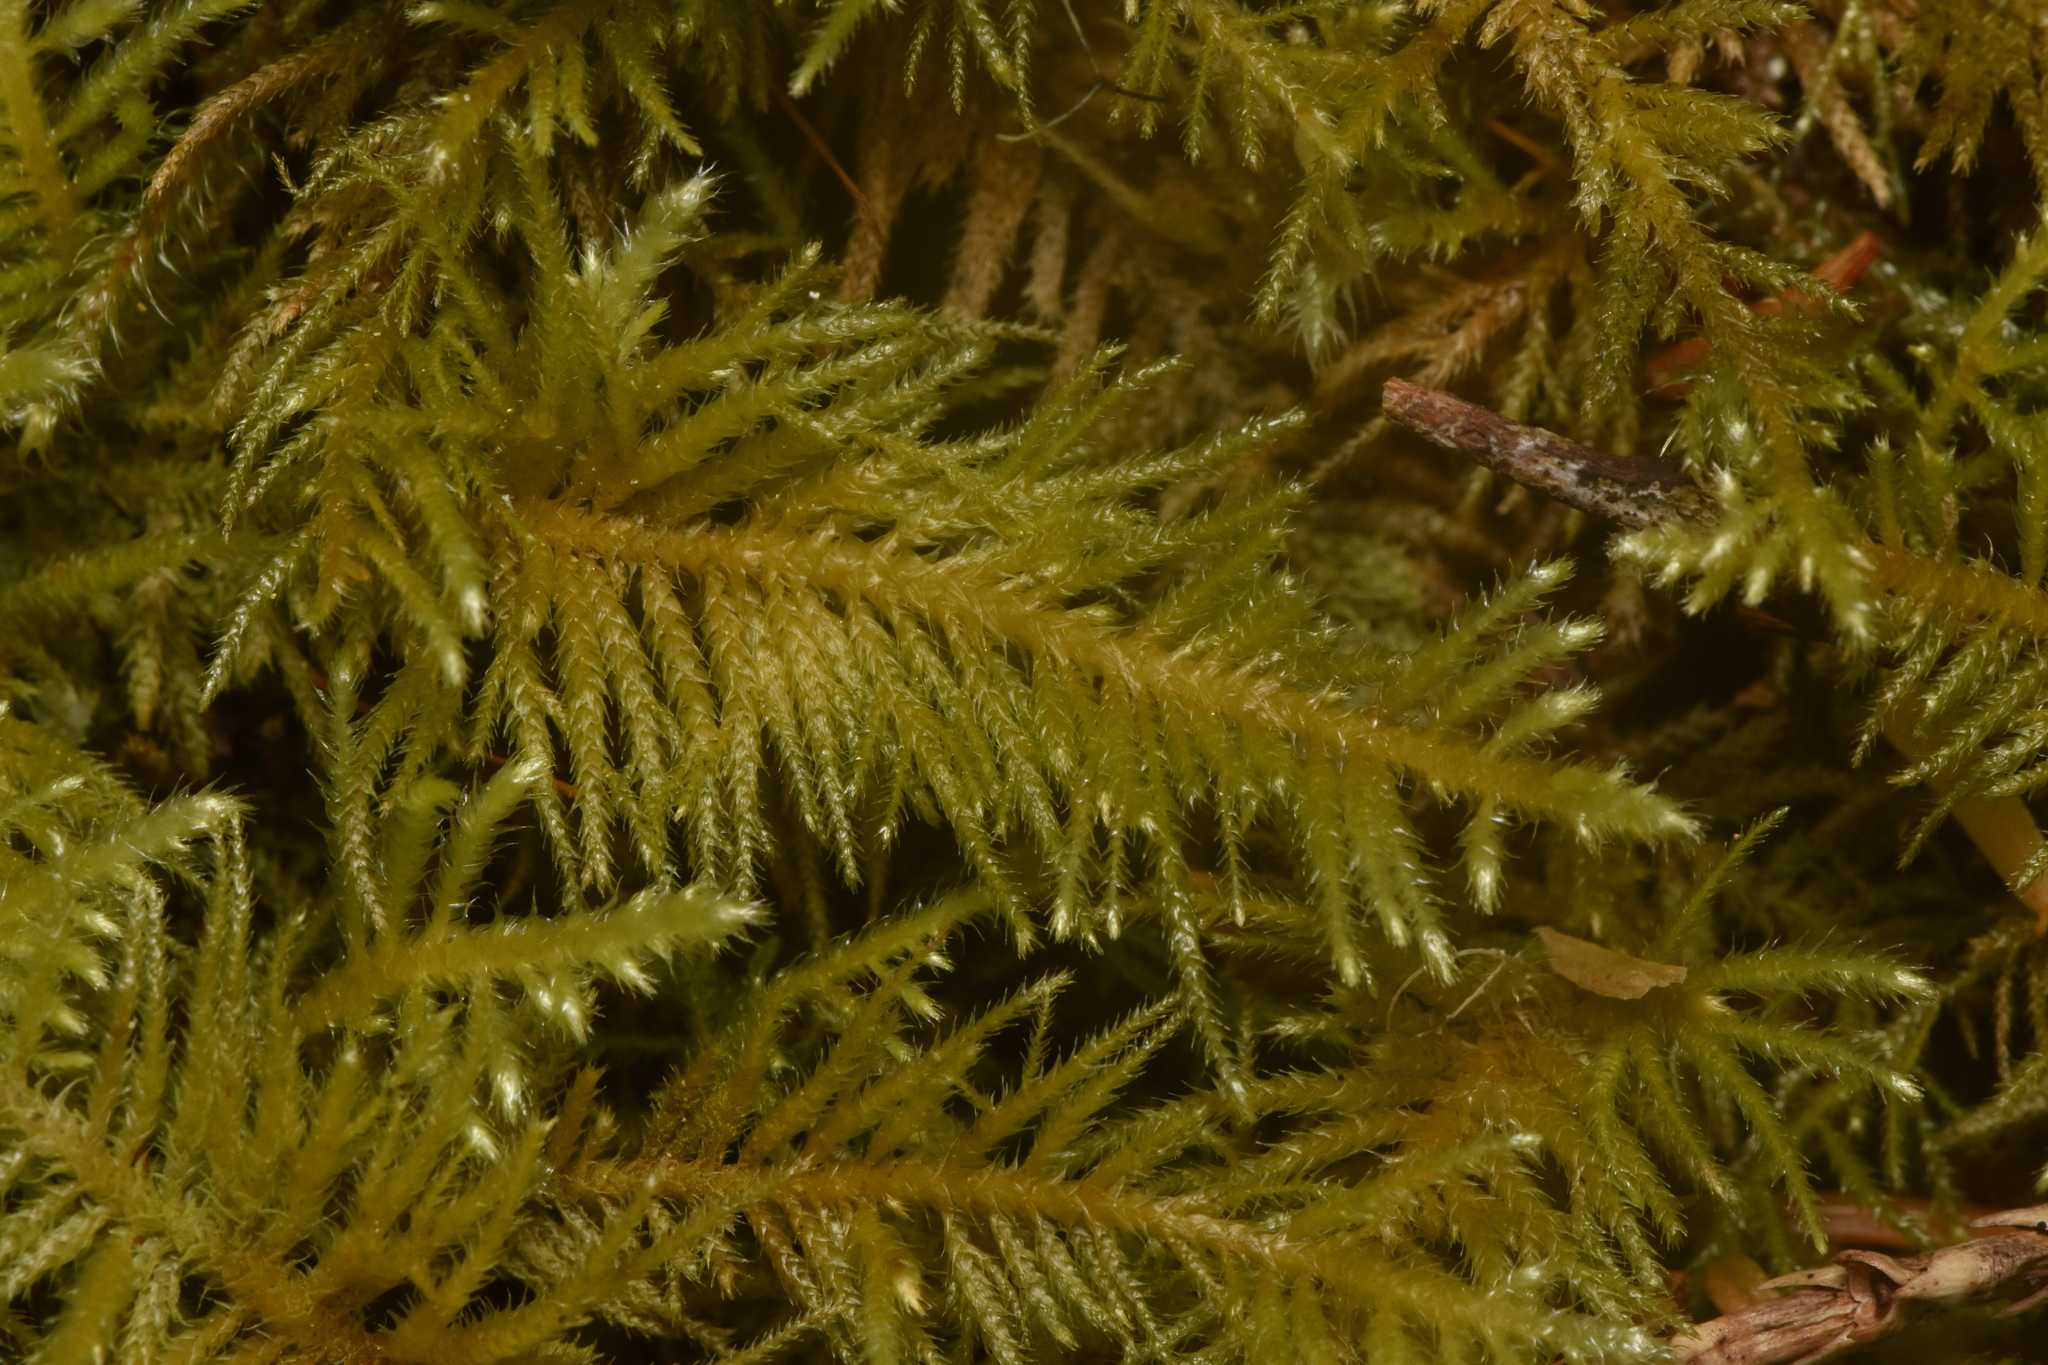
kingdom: Plantae
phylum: Bryophyta
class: Bryopsida
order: Hypnales
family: Brachytheciaceae
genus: Kindbergia
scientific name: Kindbergia oregana
